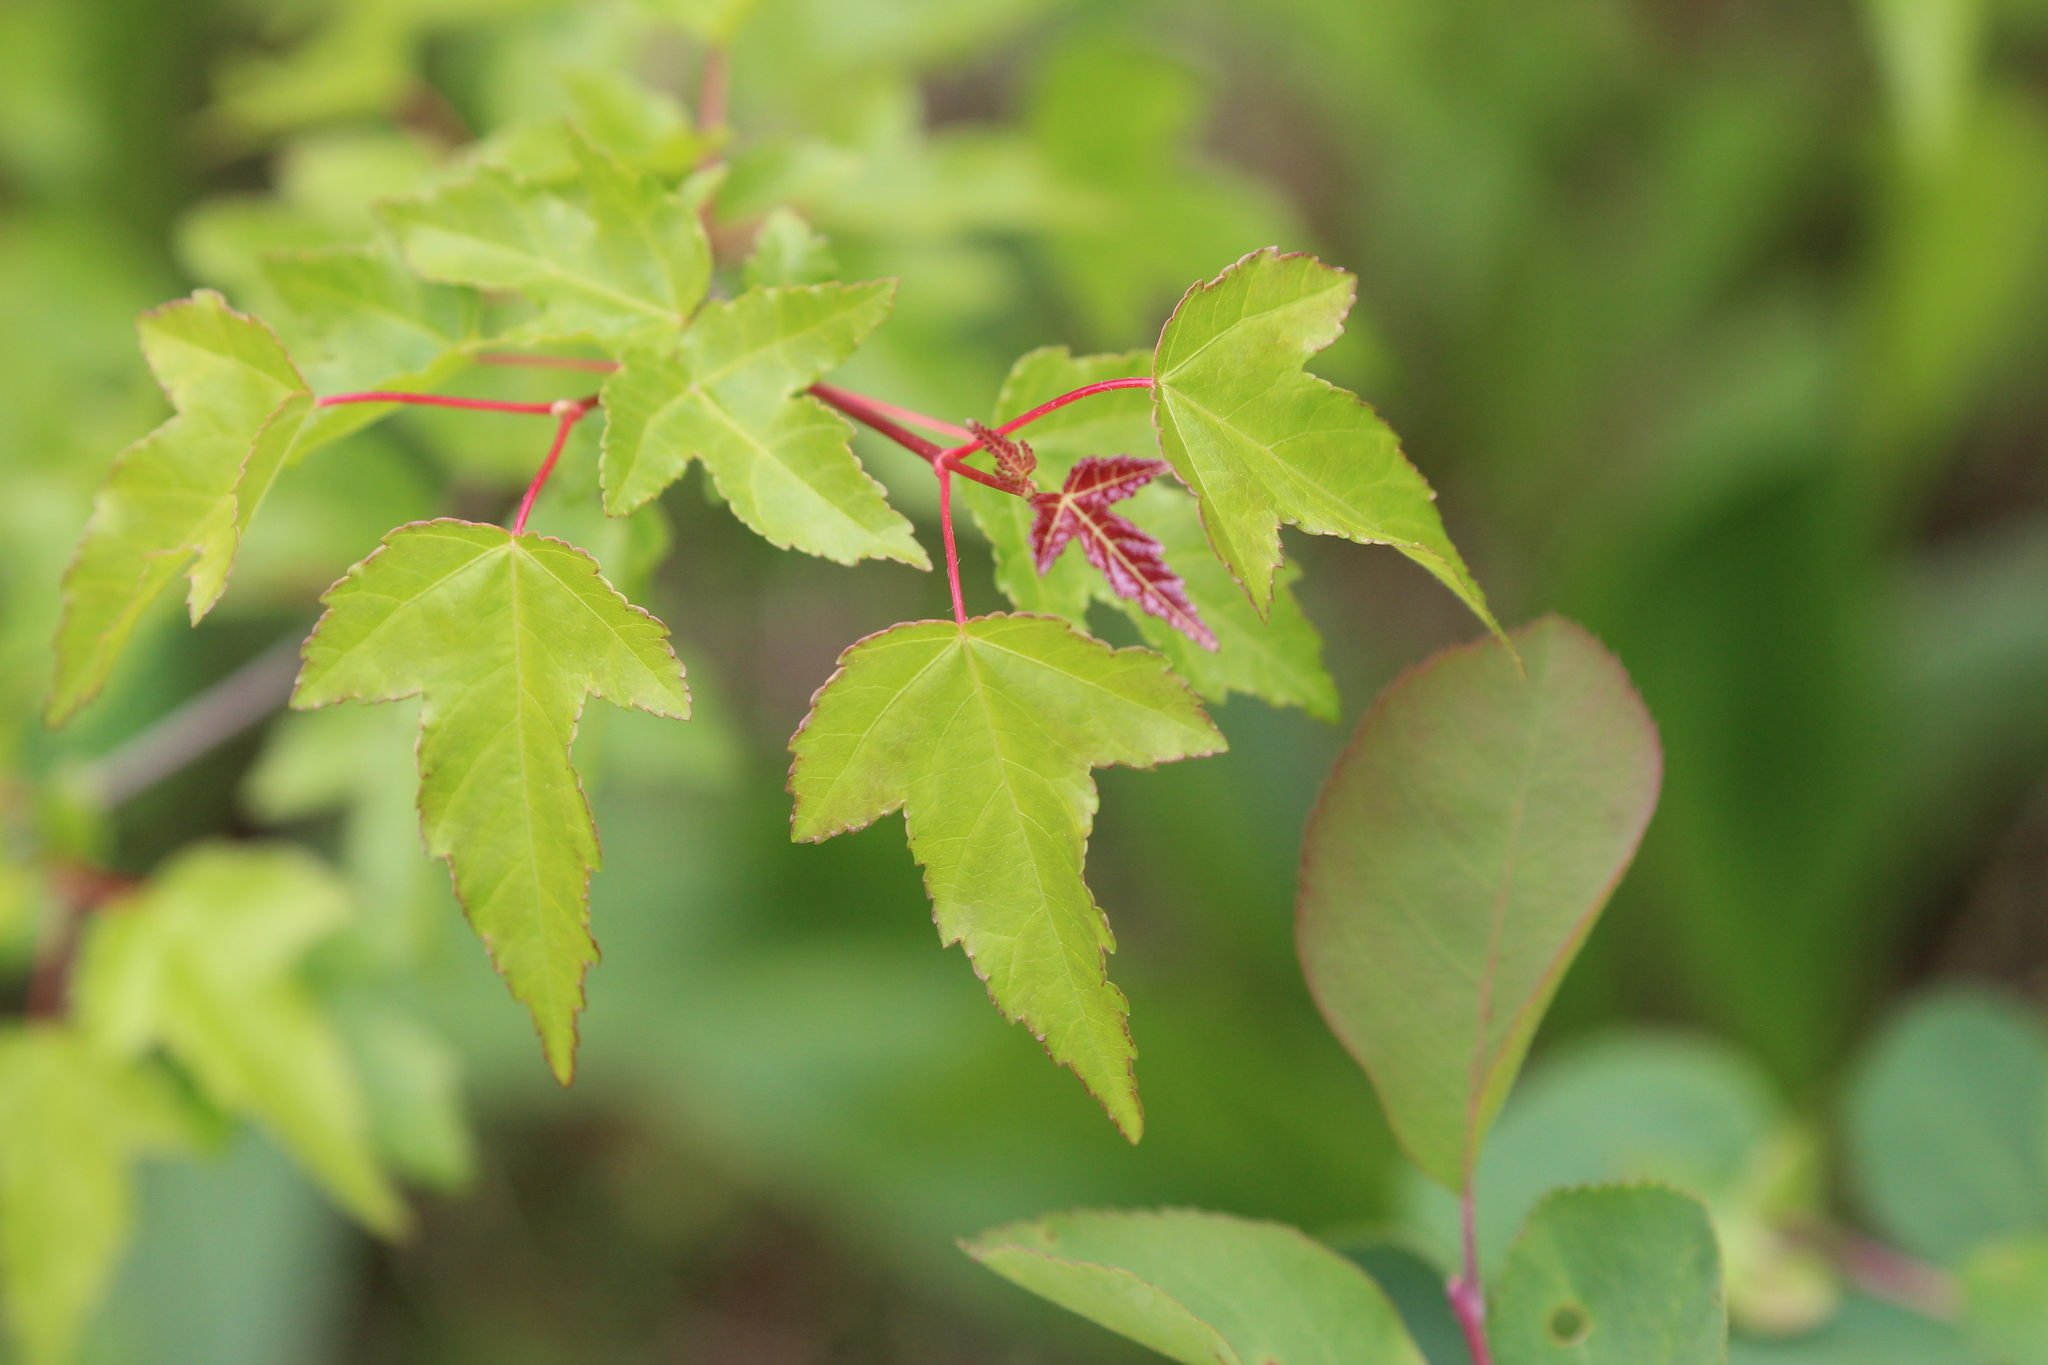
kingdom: Plantae
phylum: Tracheophyta
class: Magnoliopsida
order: Sapindales
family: Sapindaceae
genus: Acer
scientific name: Acer tataricum
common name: Tartar maple
